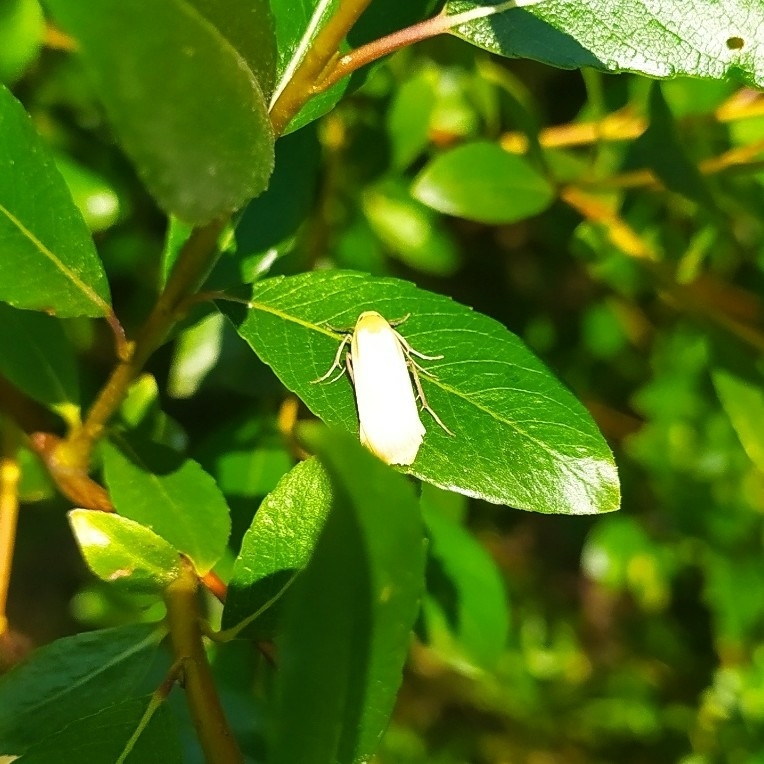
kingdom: Animalia
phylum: Arthropoda
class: Insecta
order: Lepidoptera
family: Erebidae
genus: Katha
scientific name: Katha depressa
